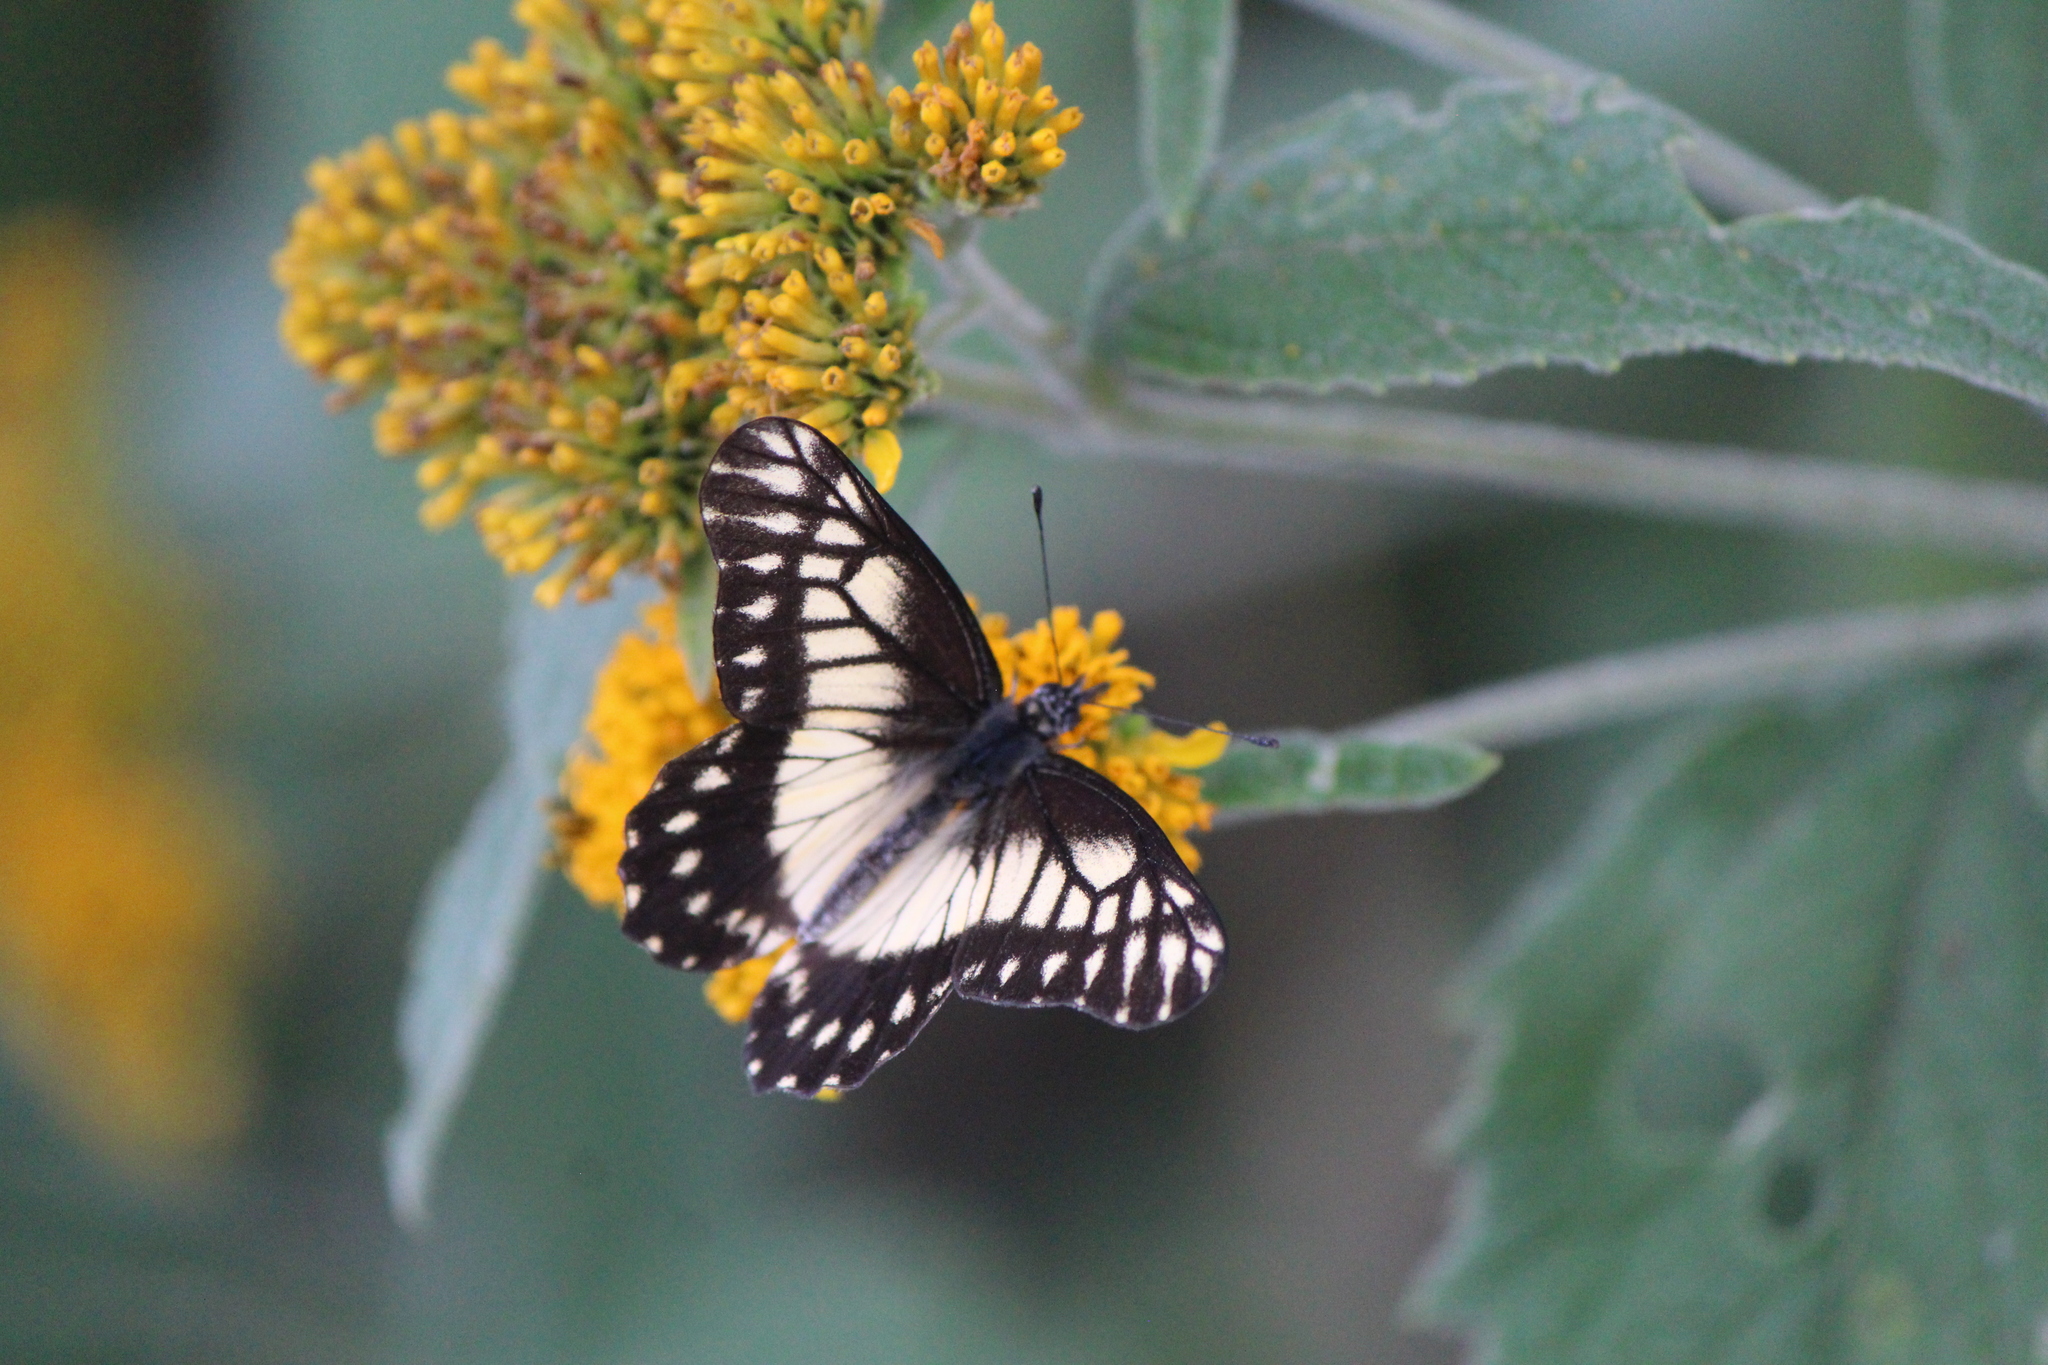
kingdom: Animalia
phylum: Arthropoda
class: Insecta
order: Lepidoptera
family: Pieridae
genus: Archonias
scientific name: Archonias nimbice
